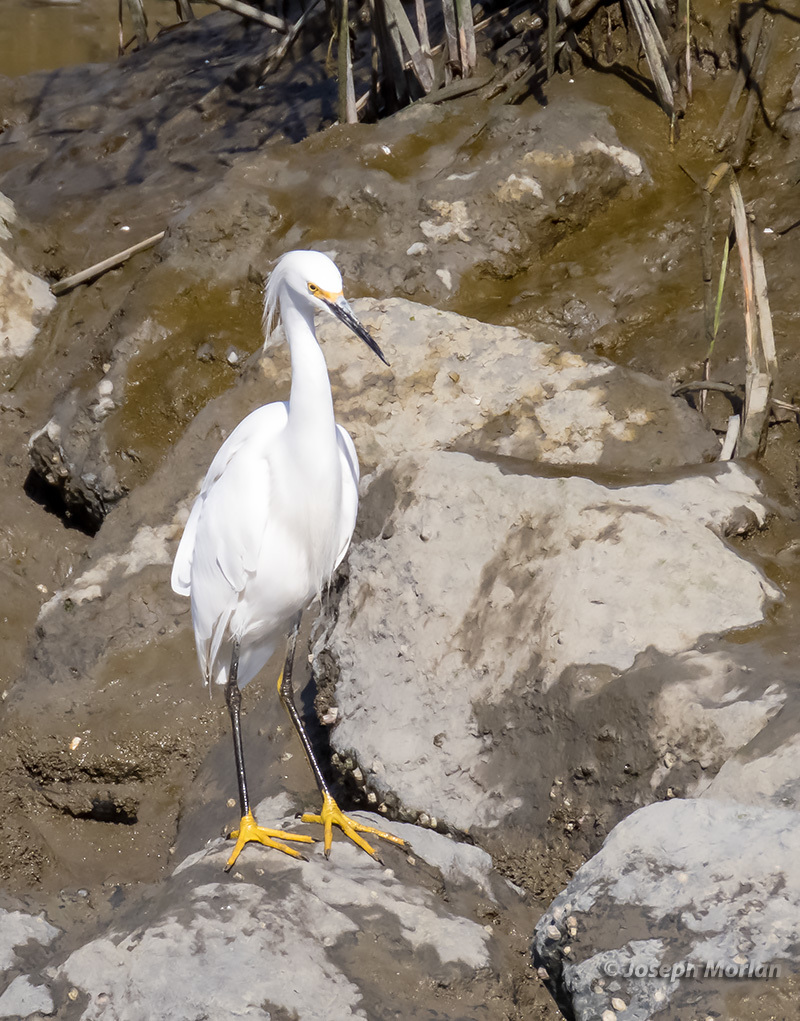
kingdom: Animalia
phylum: Chordata
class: Aves
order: Pelecaniformes
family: Ardeidae
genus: Egretta
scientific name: Egretta thula
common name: Snowy egret
